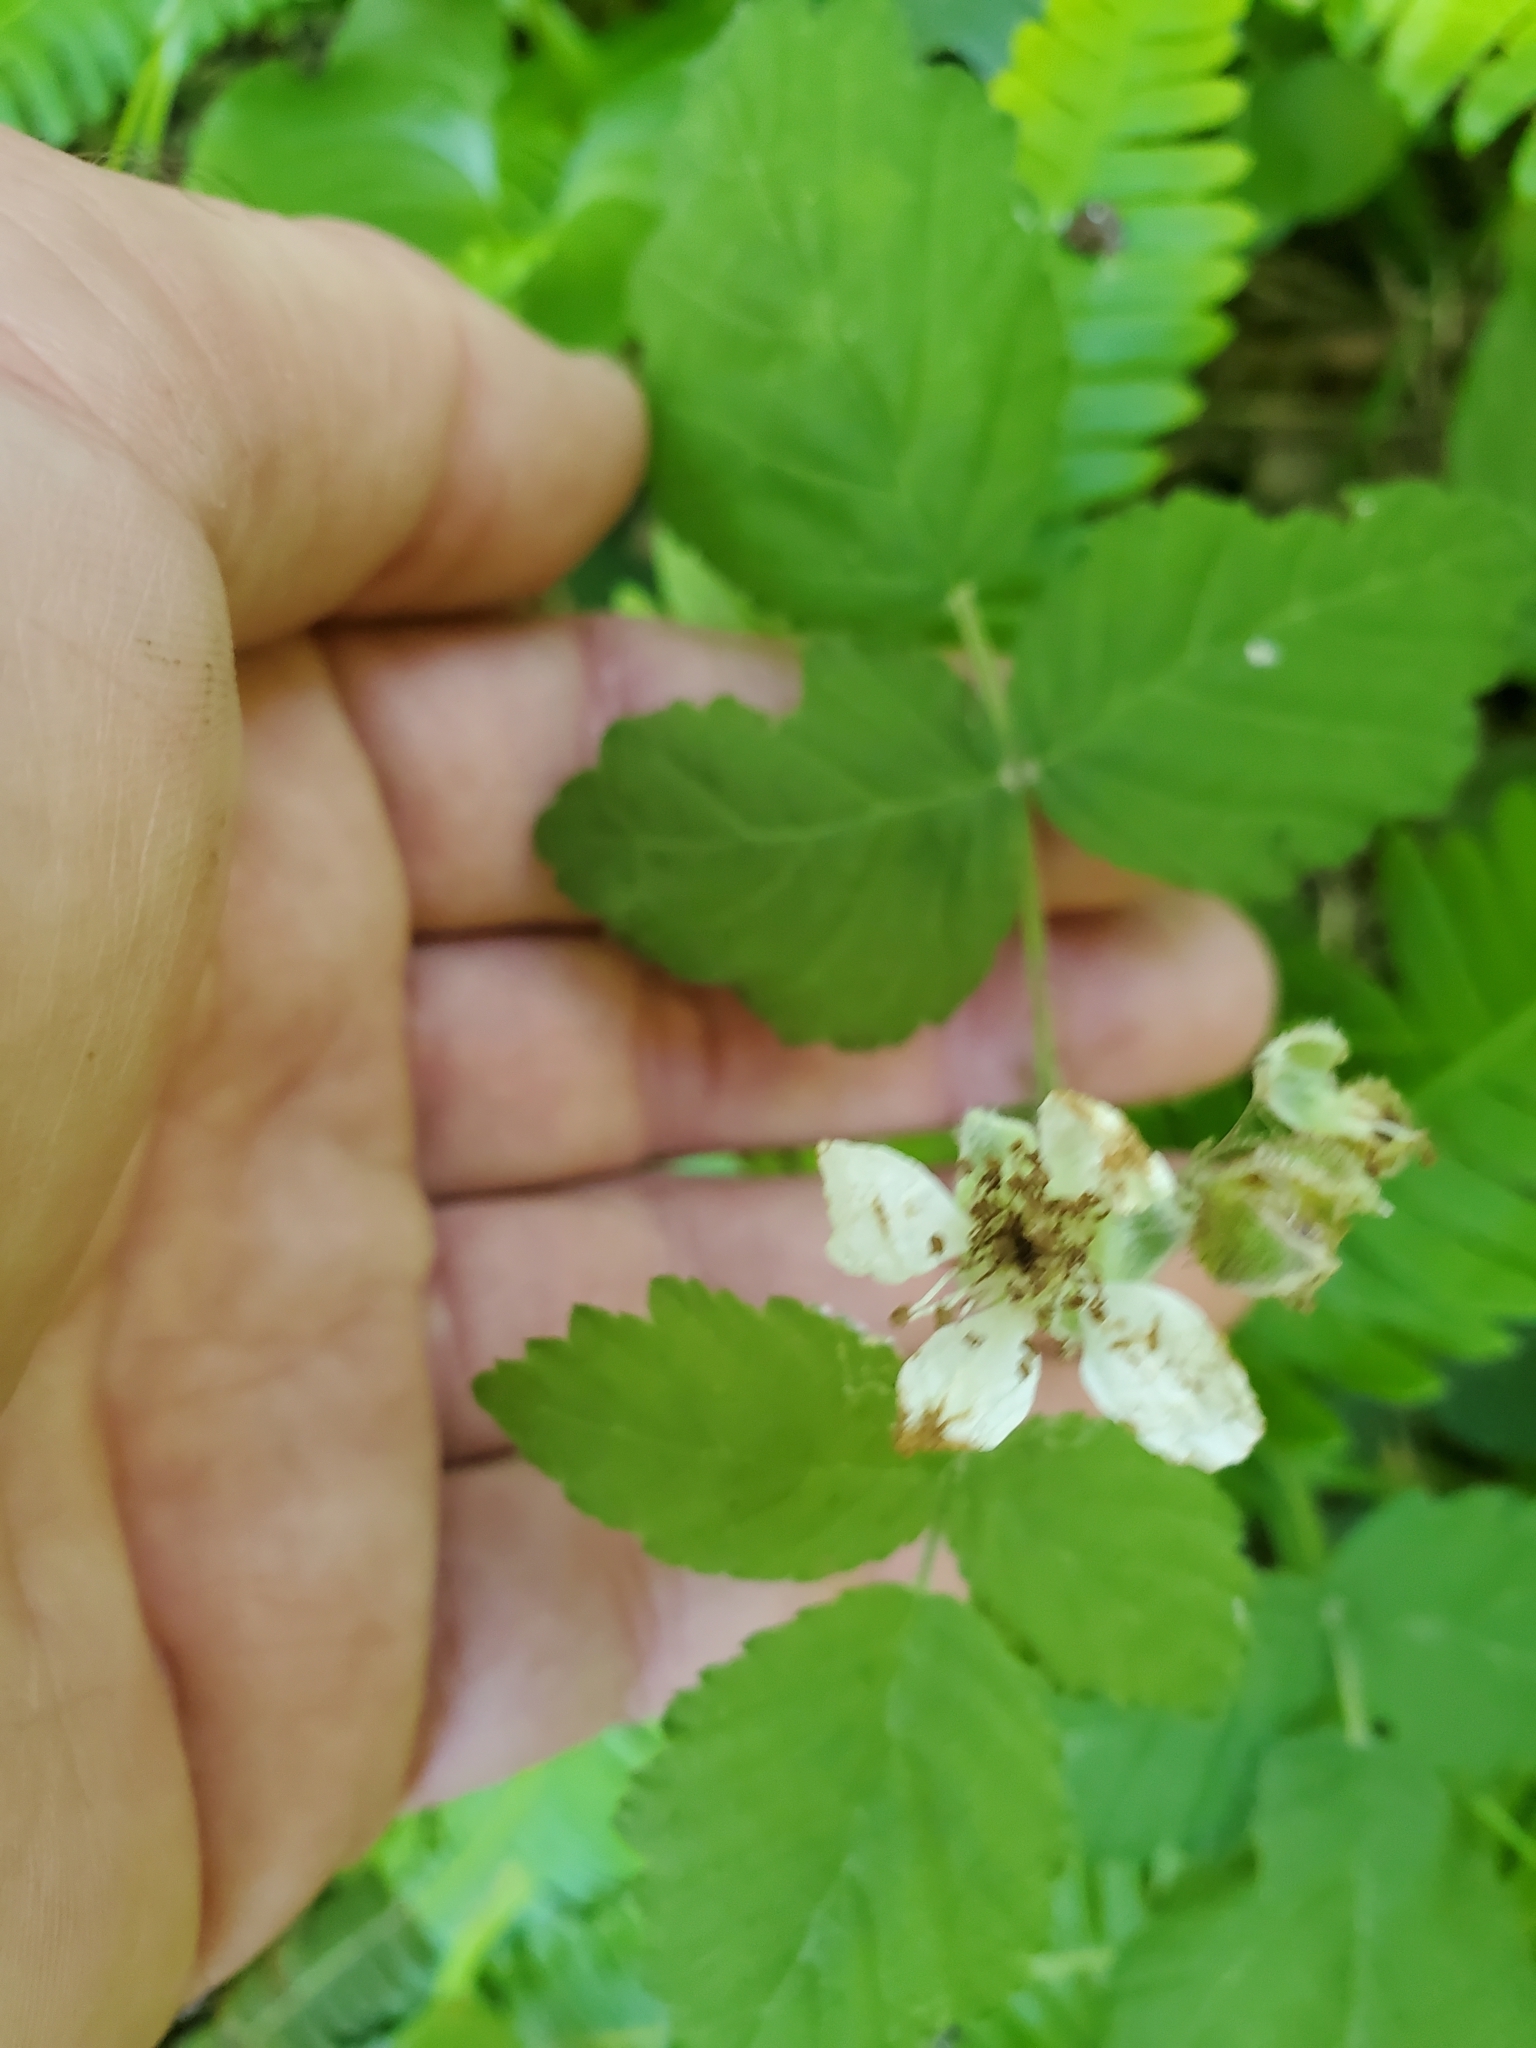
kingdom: Plantae
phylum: Tracheophyta
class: Magnoliopsida
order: Rosales
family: Rosaceae
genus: Rubus
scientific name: Rubus ursinus
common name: Pacific blackberry
